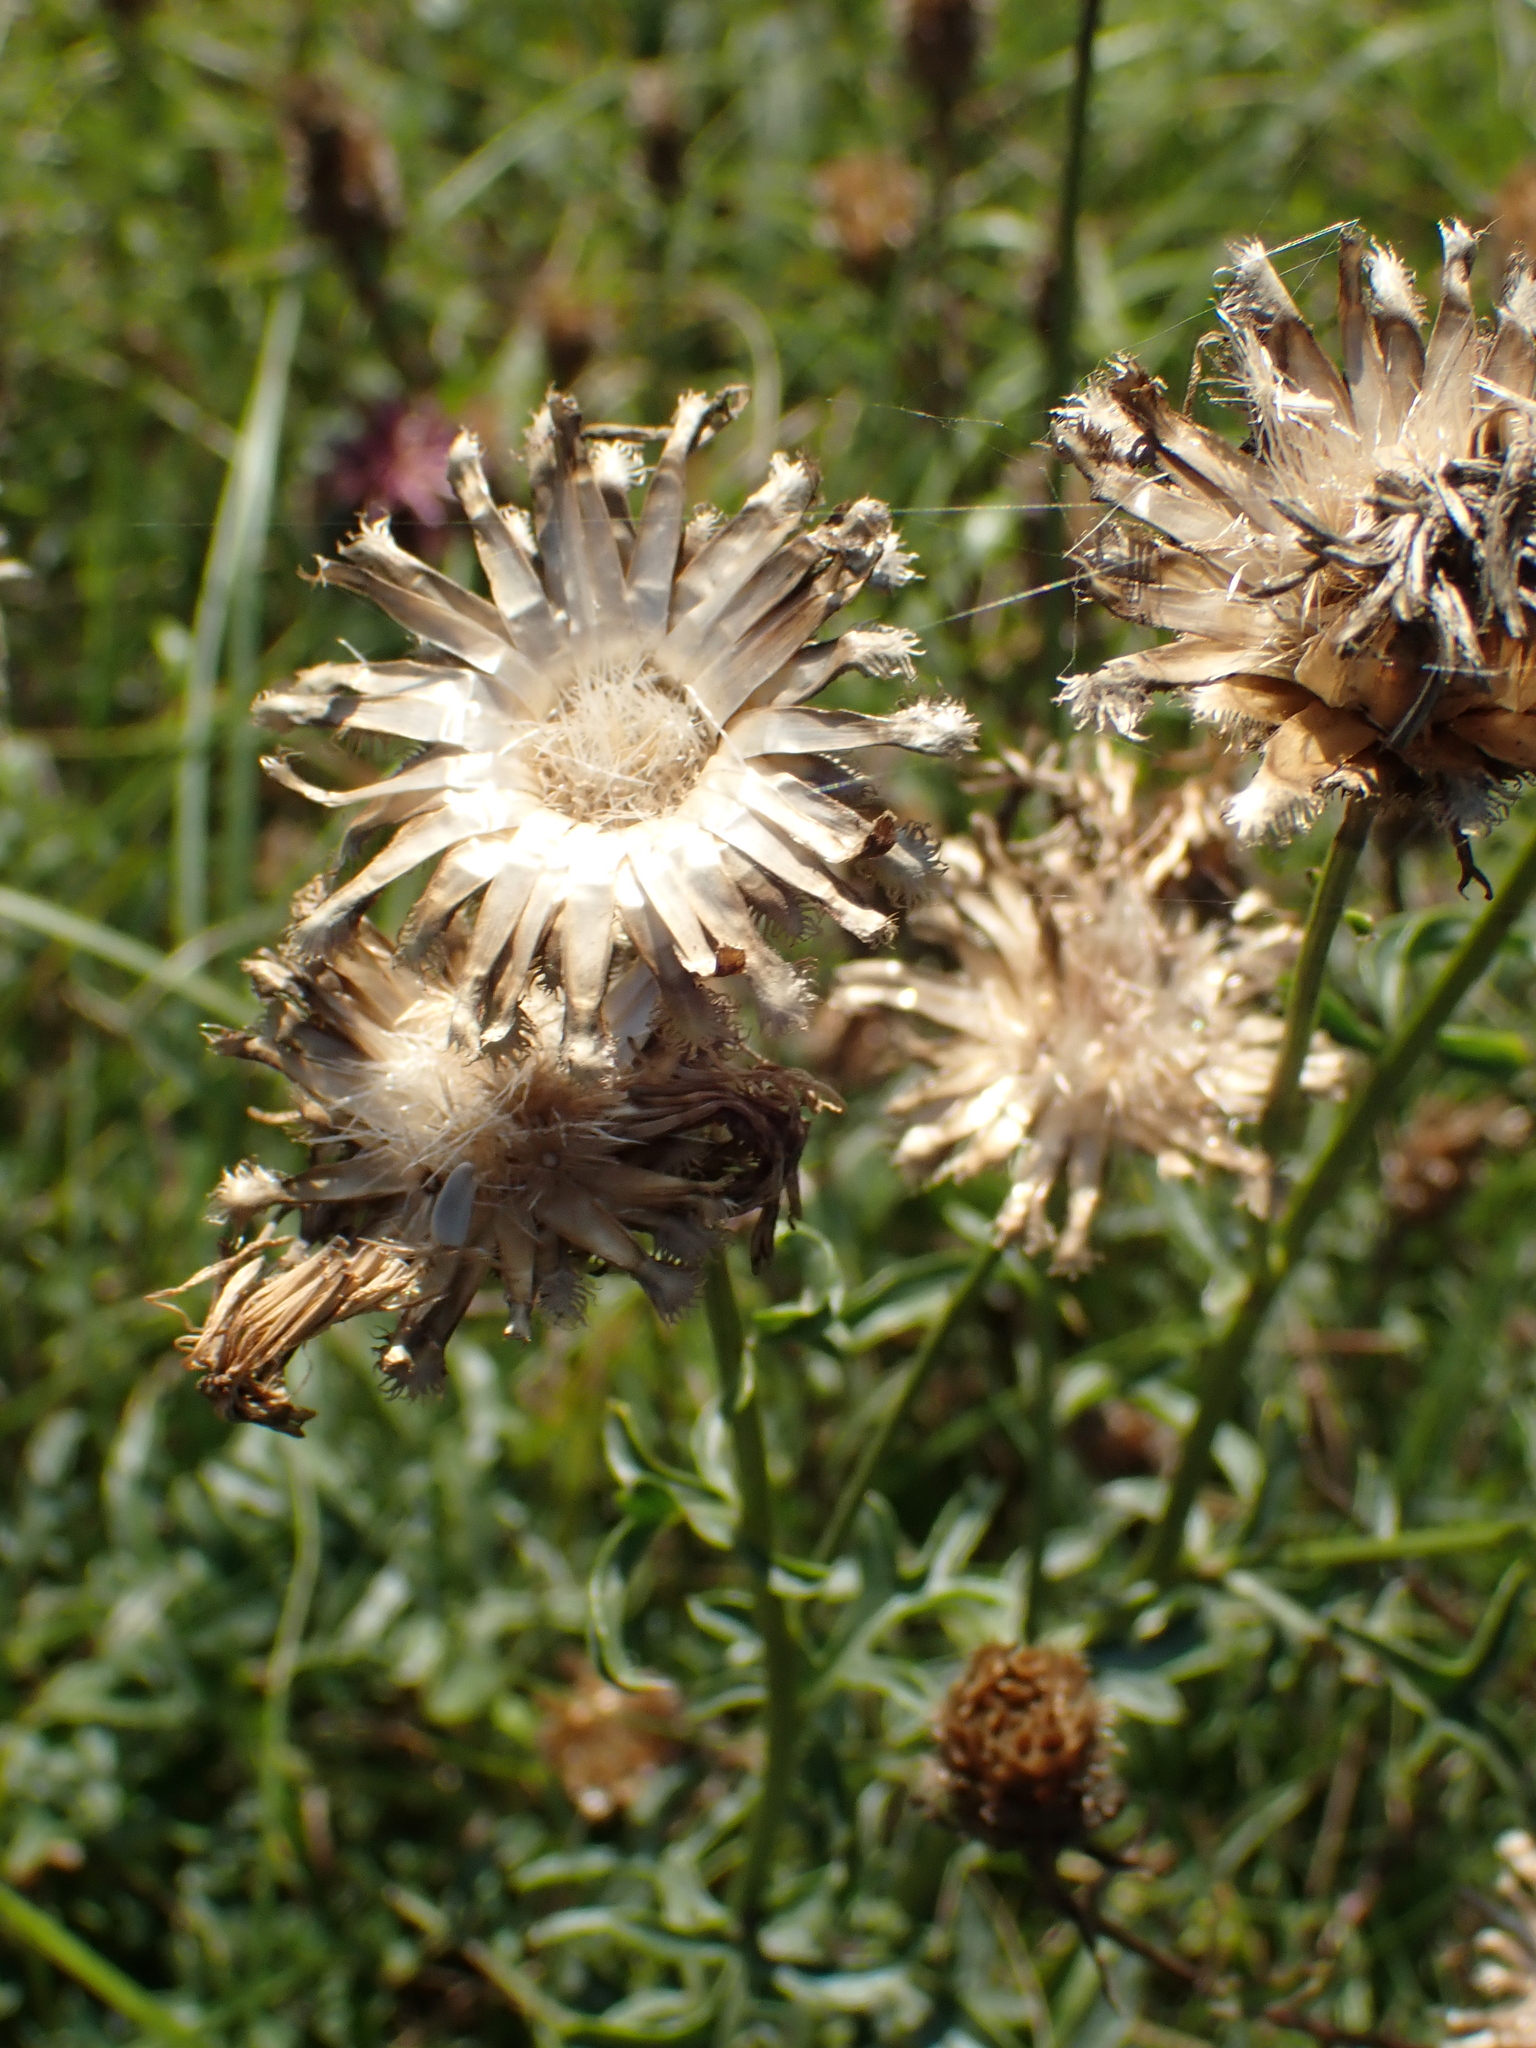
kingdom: Plantae
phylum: Tracheophyta
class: Magnoliopsida
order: Asterales
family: Asteraceae
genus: Centaurea
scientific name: Centaurea scabiosa
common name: Greater knapweed
